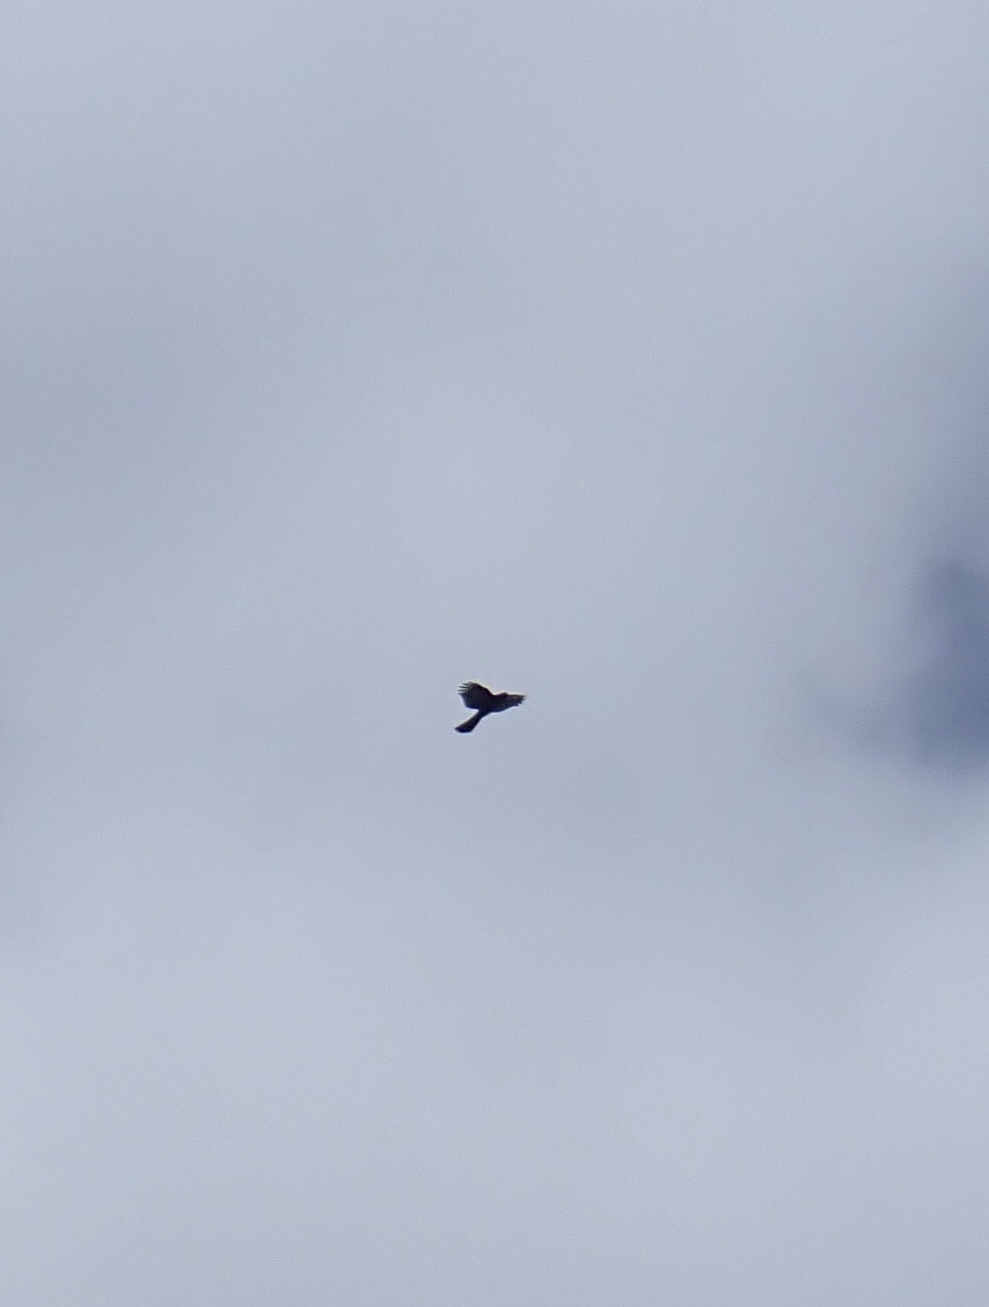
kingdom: Animalia
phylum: Chordata
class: Aves
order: Accipitriformes
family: Accipitridae
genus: Accipiter
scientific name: Accipiter striatus
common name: Sharp-shinned hawk
